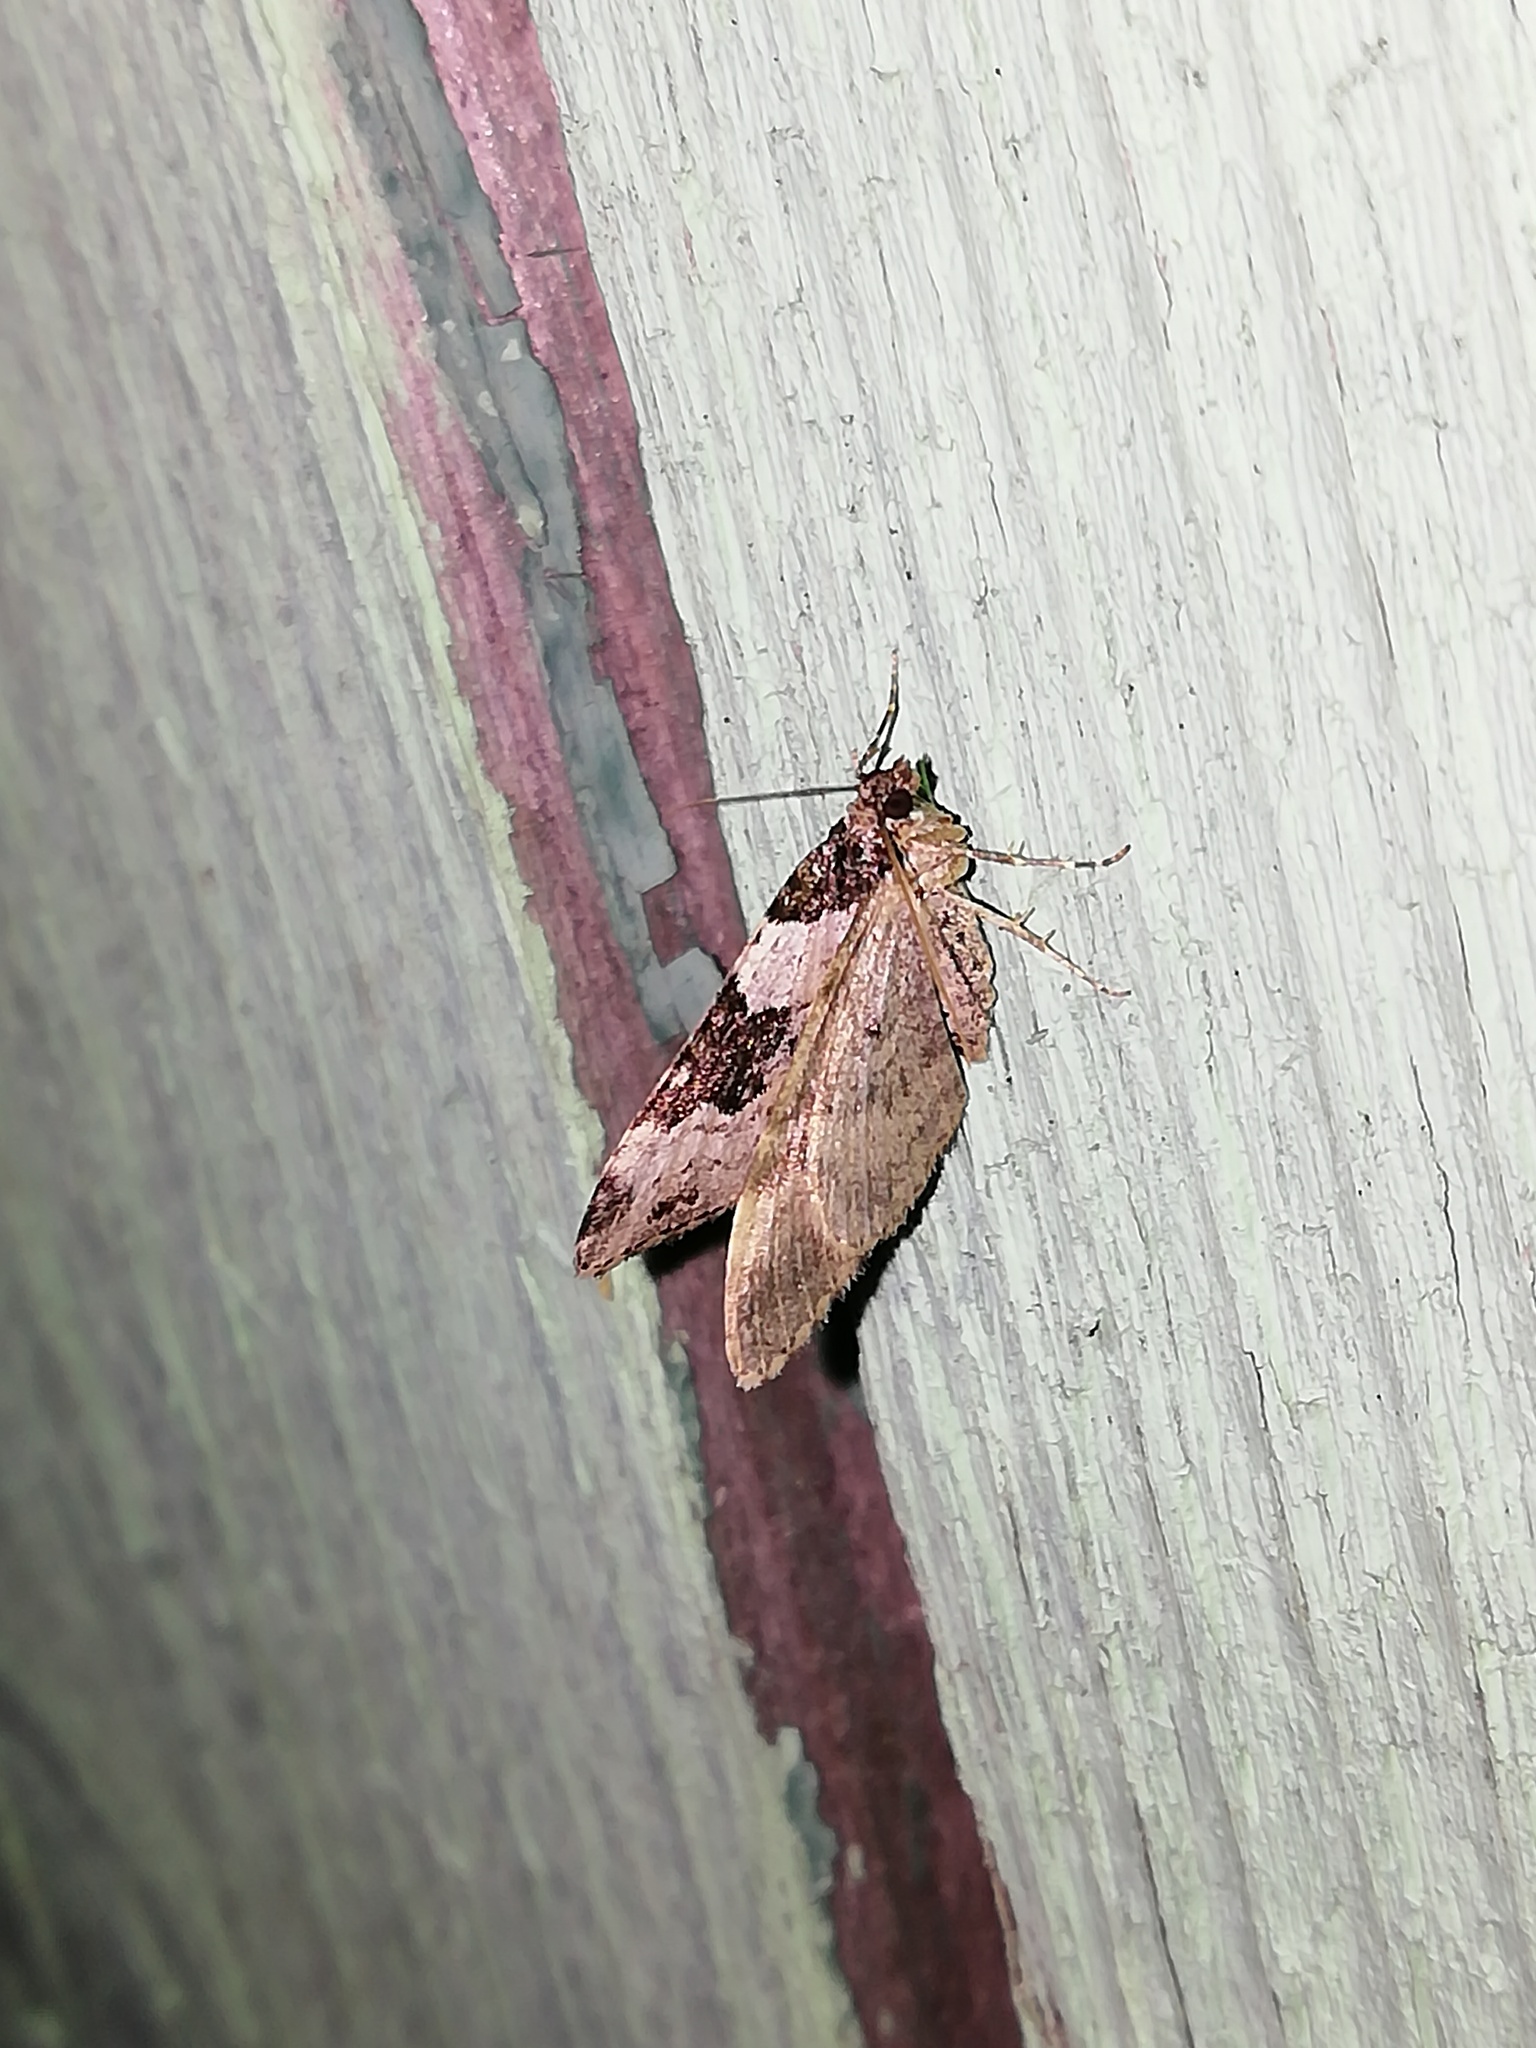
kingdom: Animalia
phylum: Arthropoda
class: Insecta
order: Lepidoptera
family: Geometridae
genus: Xanthorhoe
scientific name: Xanthorhoe fluctuata
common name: Garden carpet
